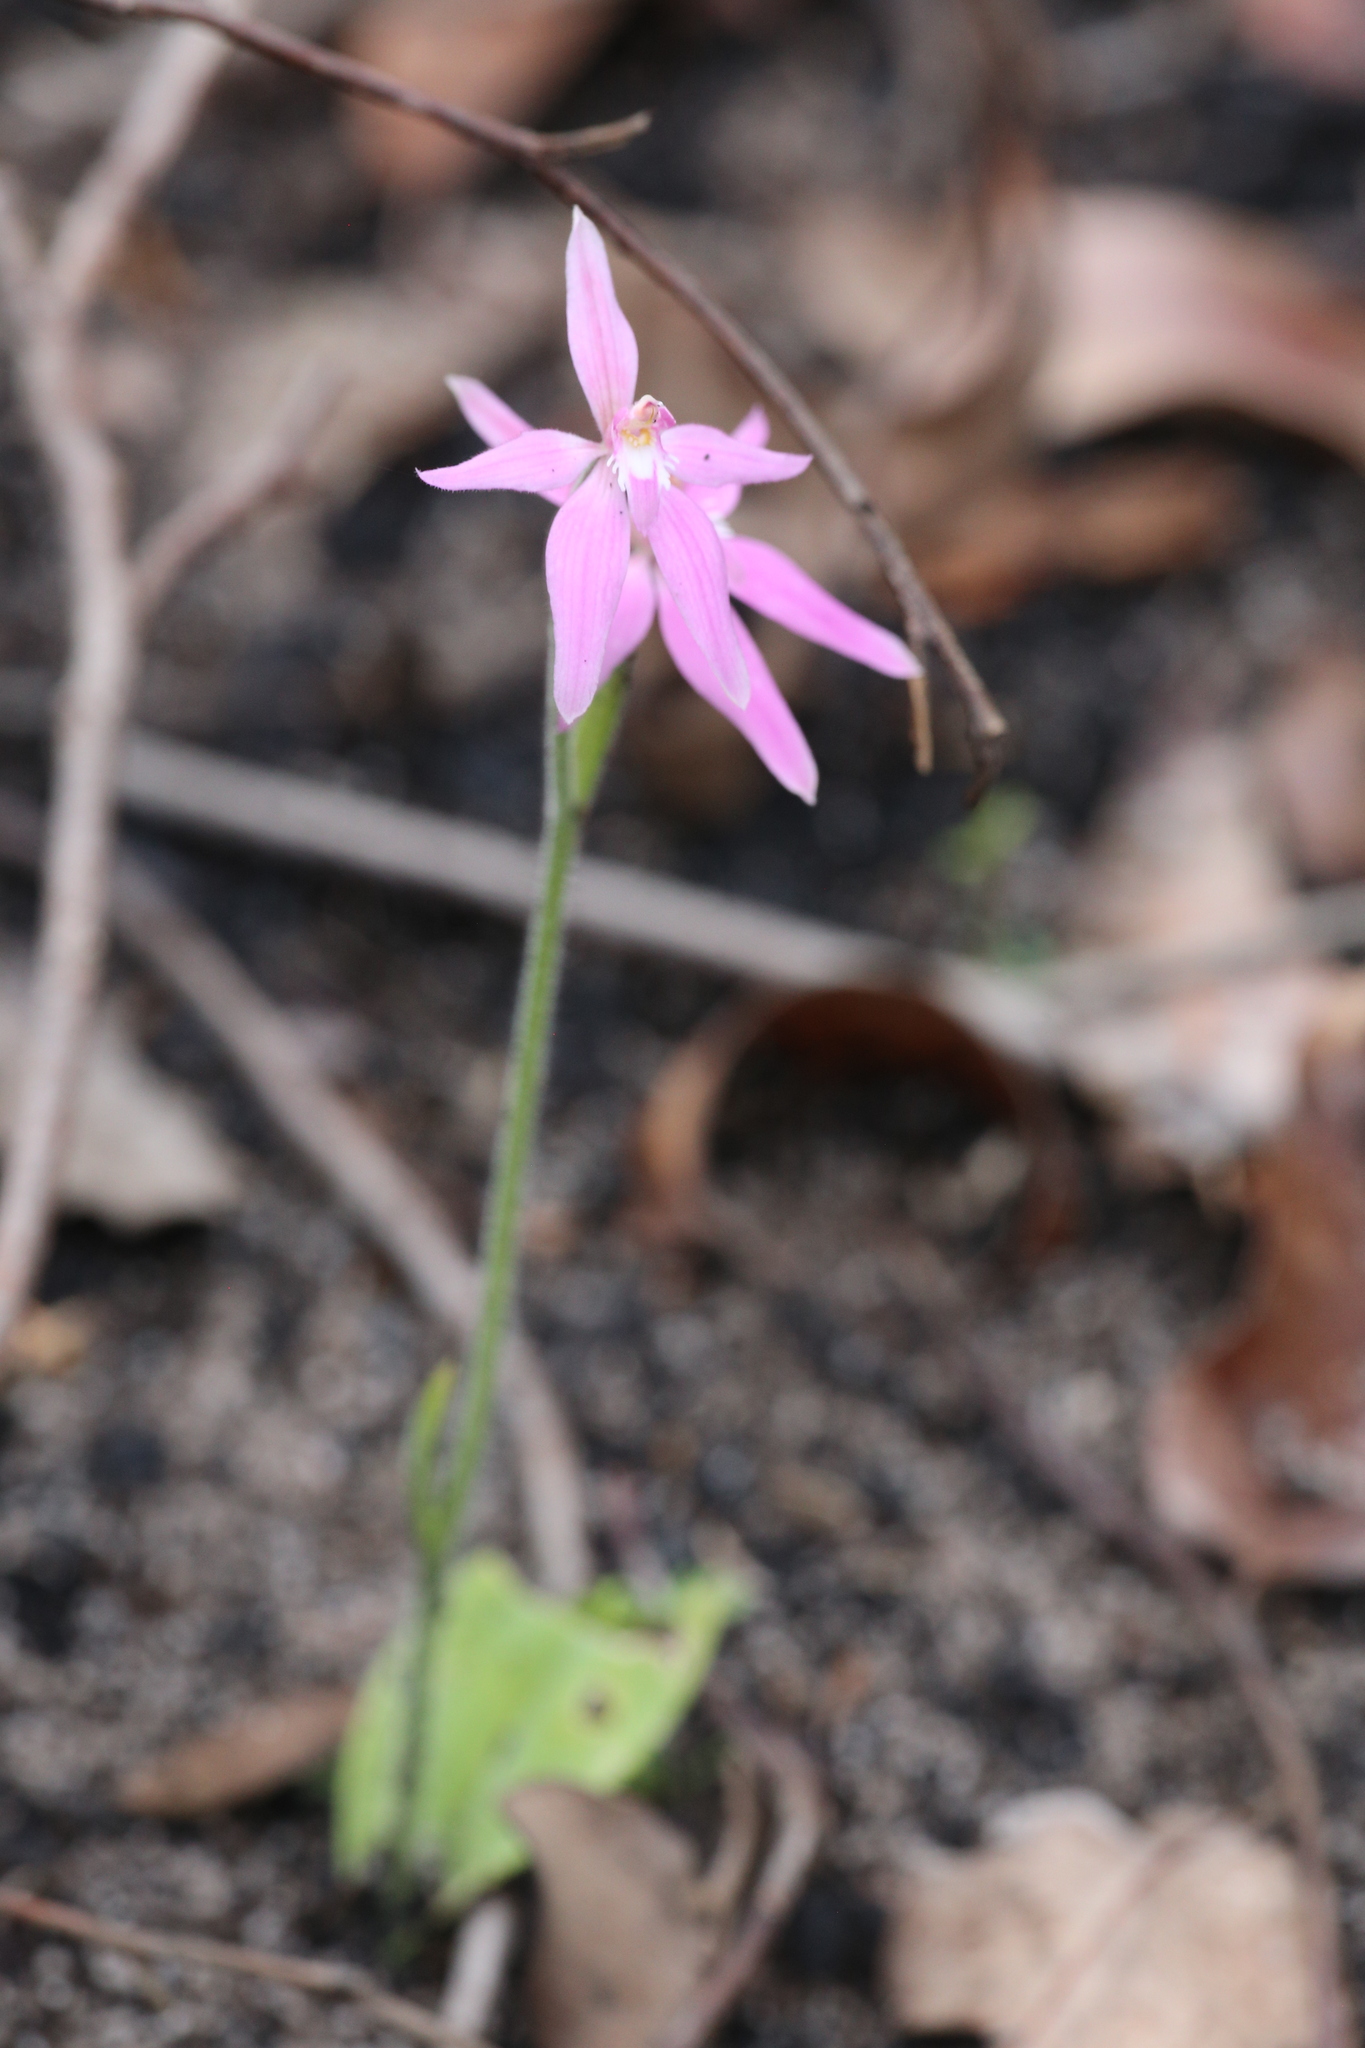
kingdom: Plantae
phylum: Tracheophyta
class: Liliopsida
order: Asparagales
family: Orchidaceae
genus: Caladenia
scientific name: Caladenia latifolia
